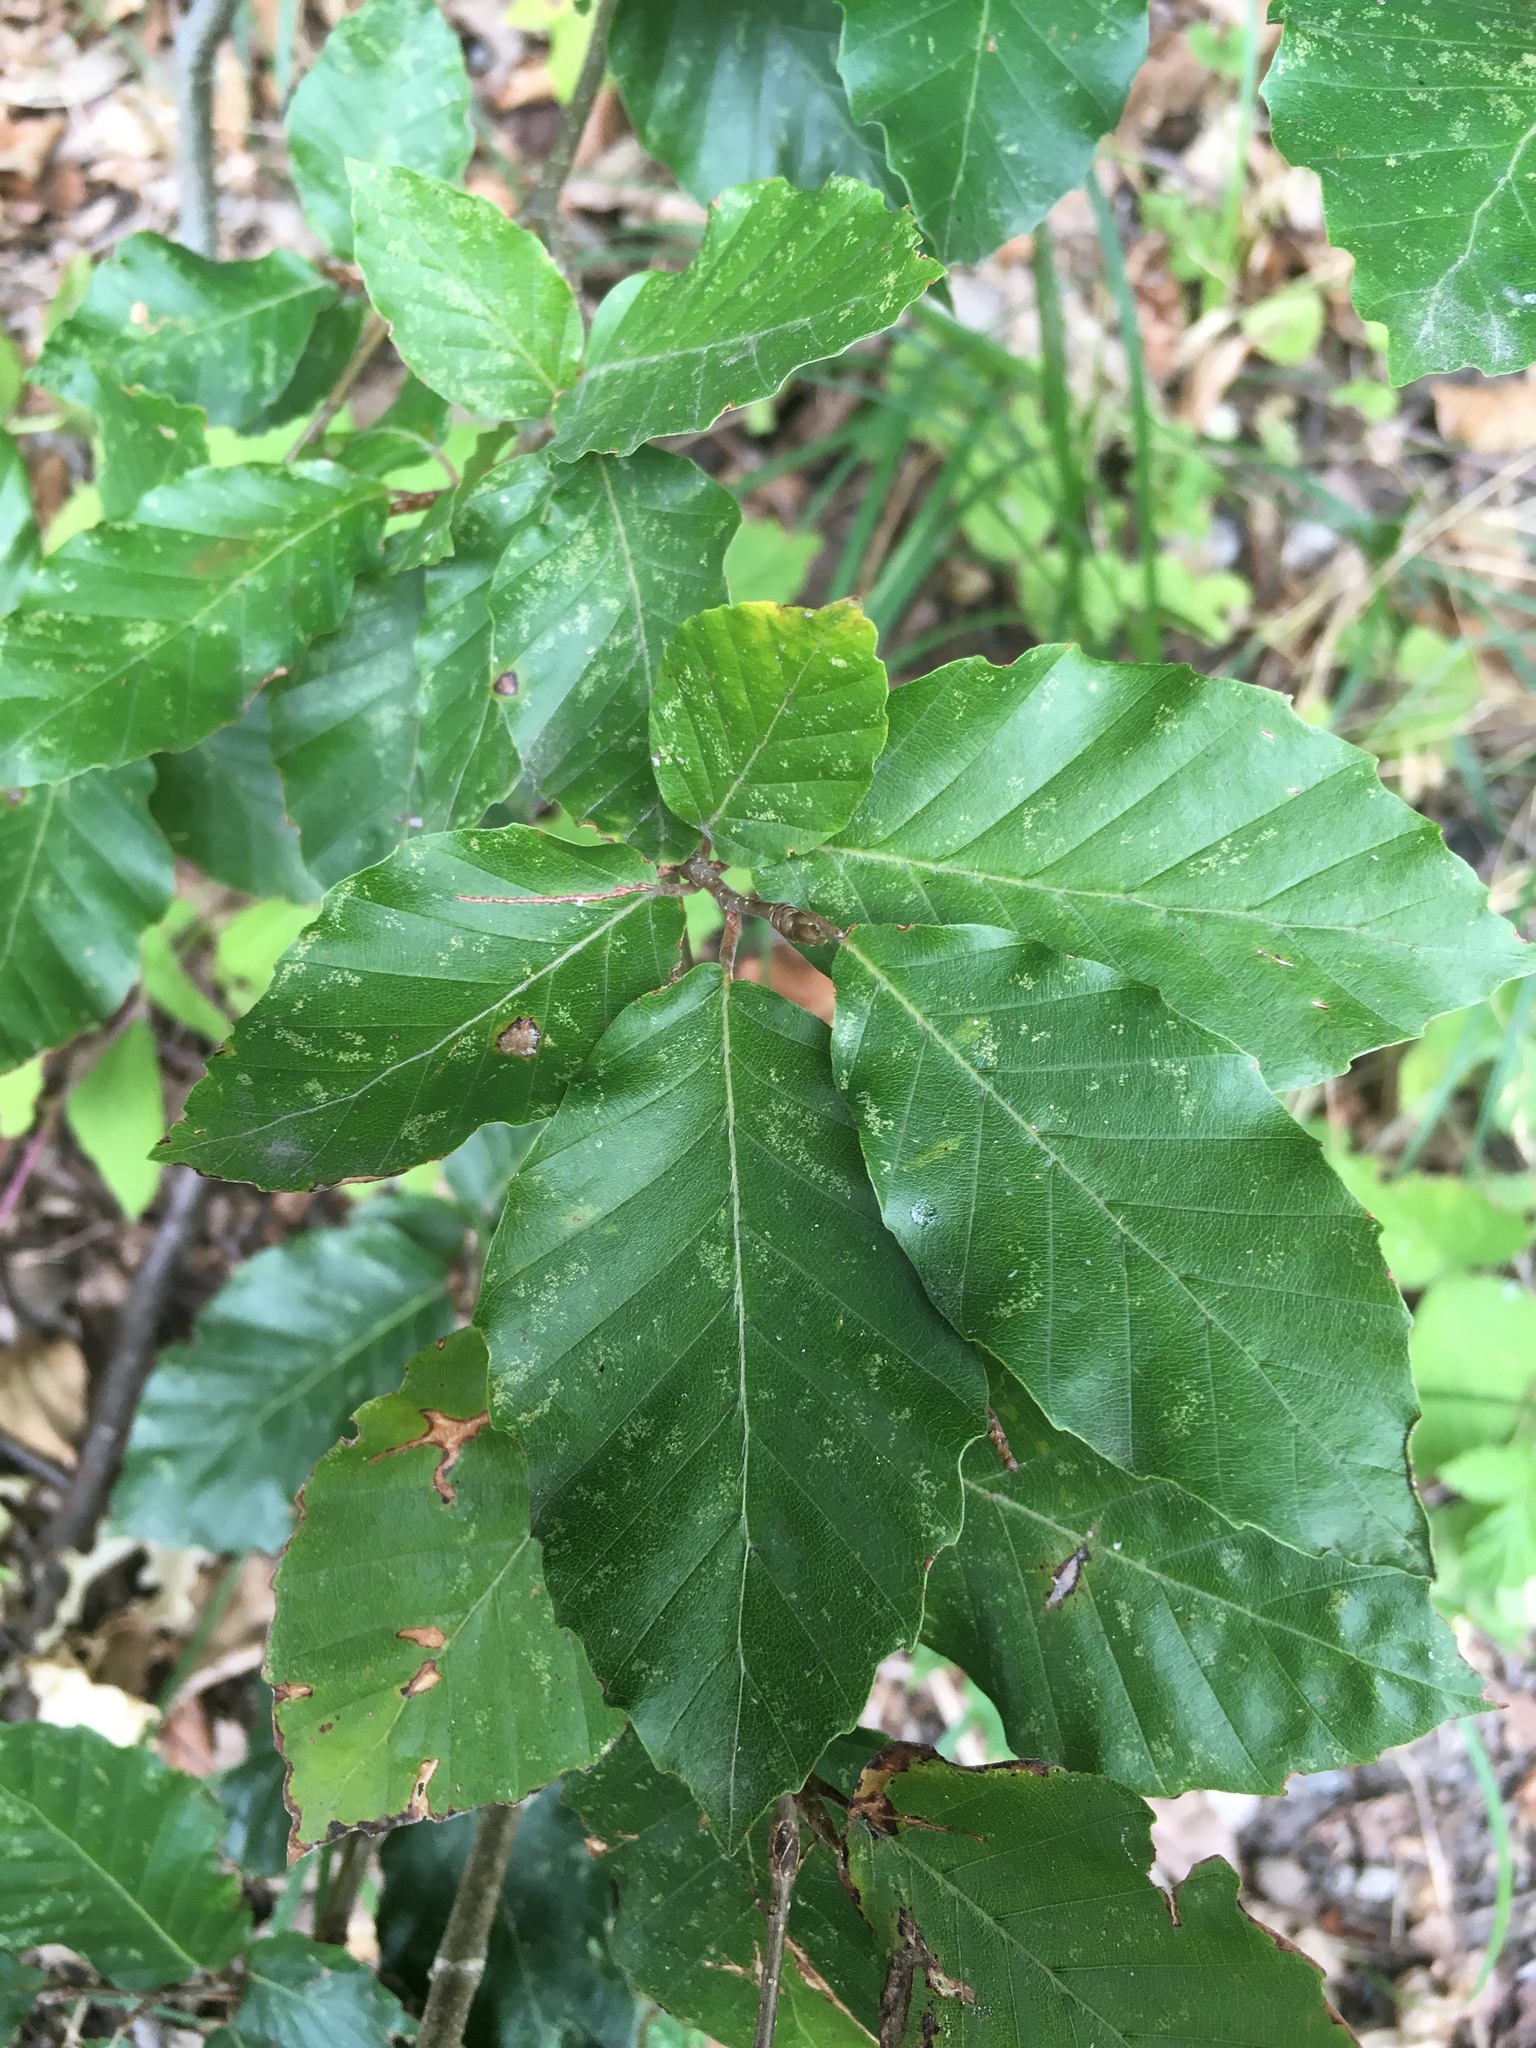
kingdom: Plantae
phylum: Tracheophyta
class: Magnoliopsida
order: Fagales
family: Fagaceae
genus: Fagus
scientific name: Fagus sylvatica
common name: Beech
